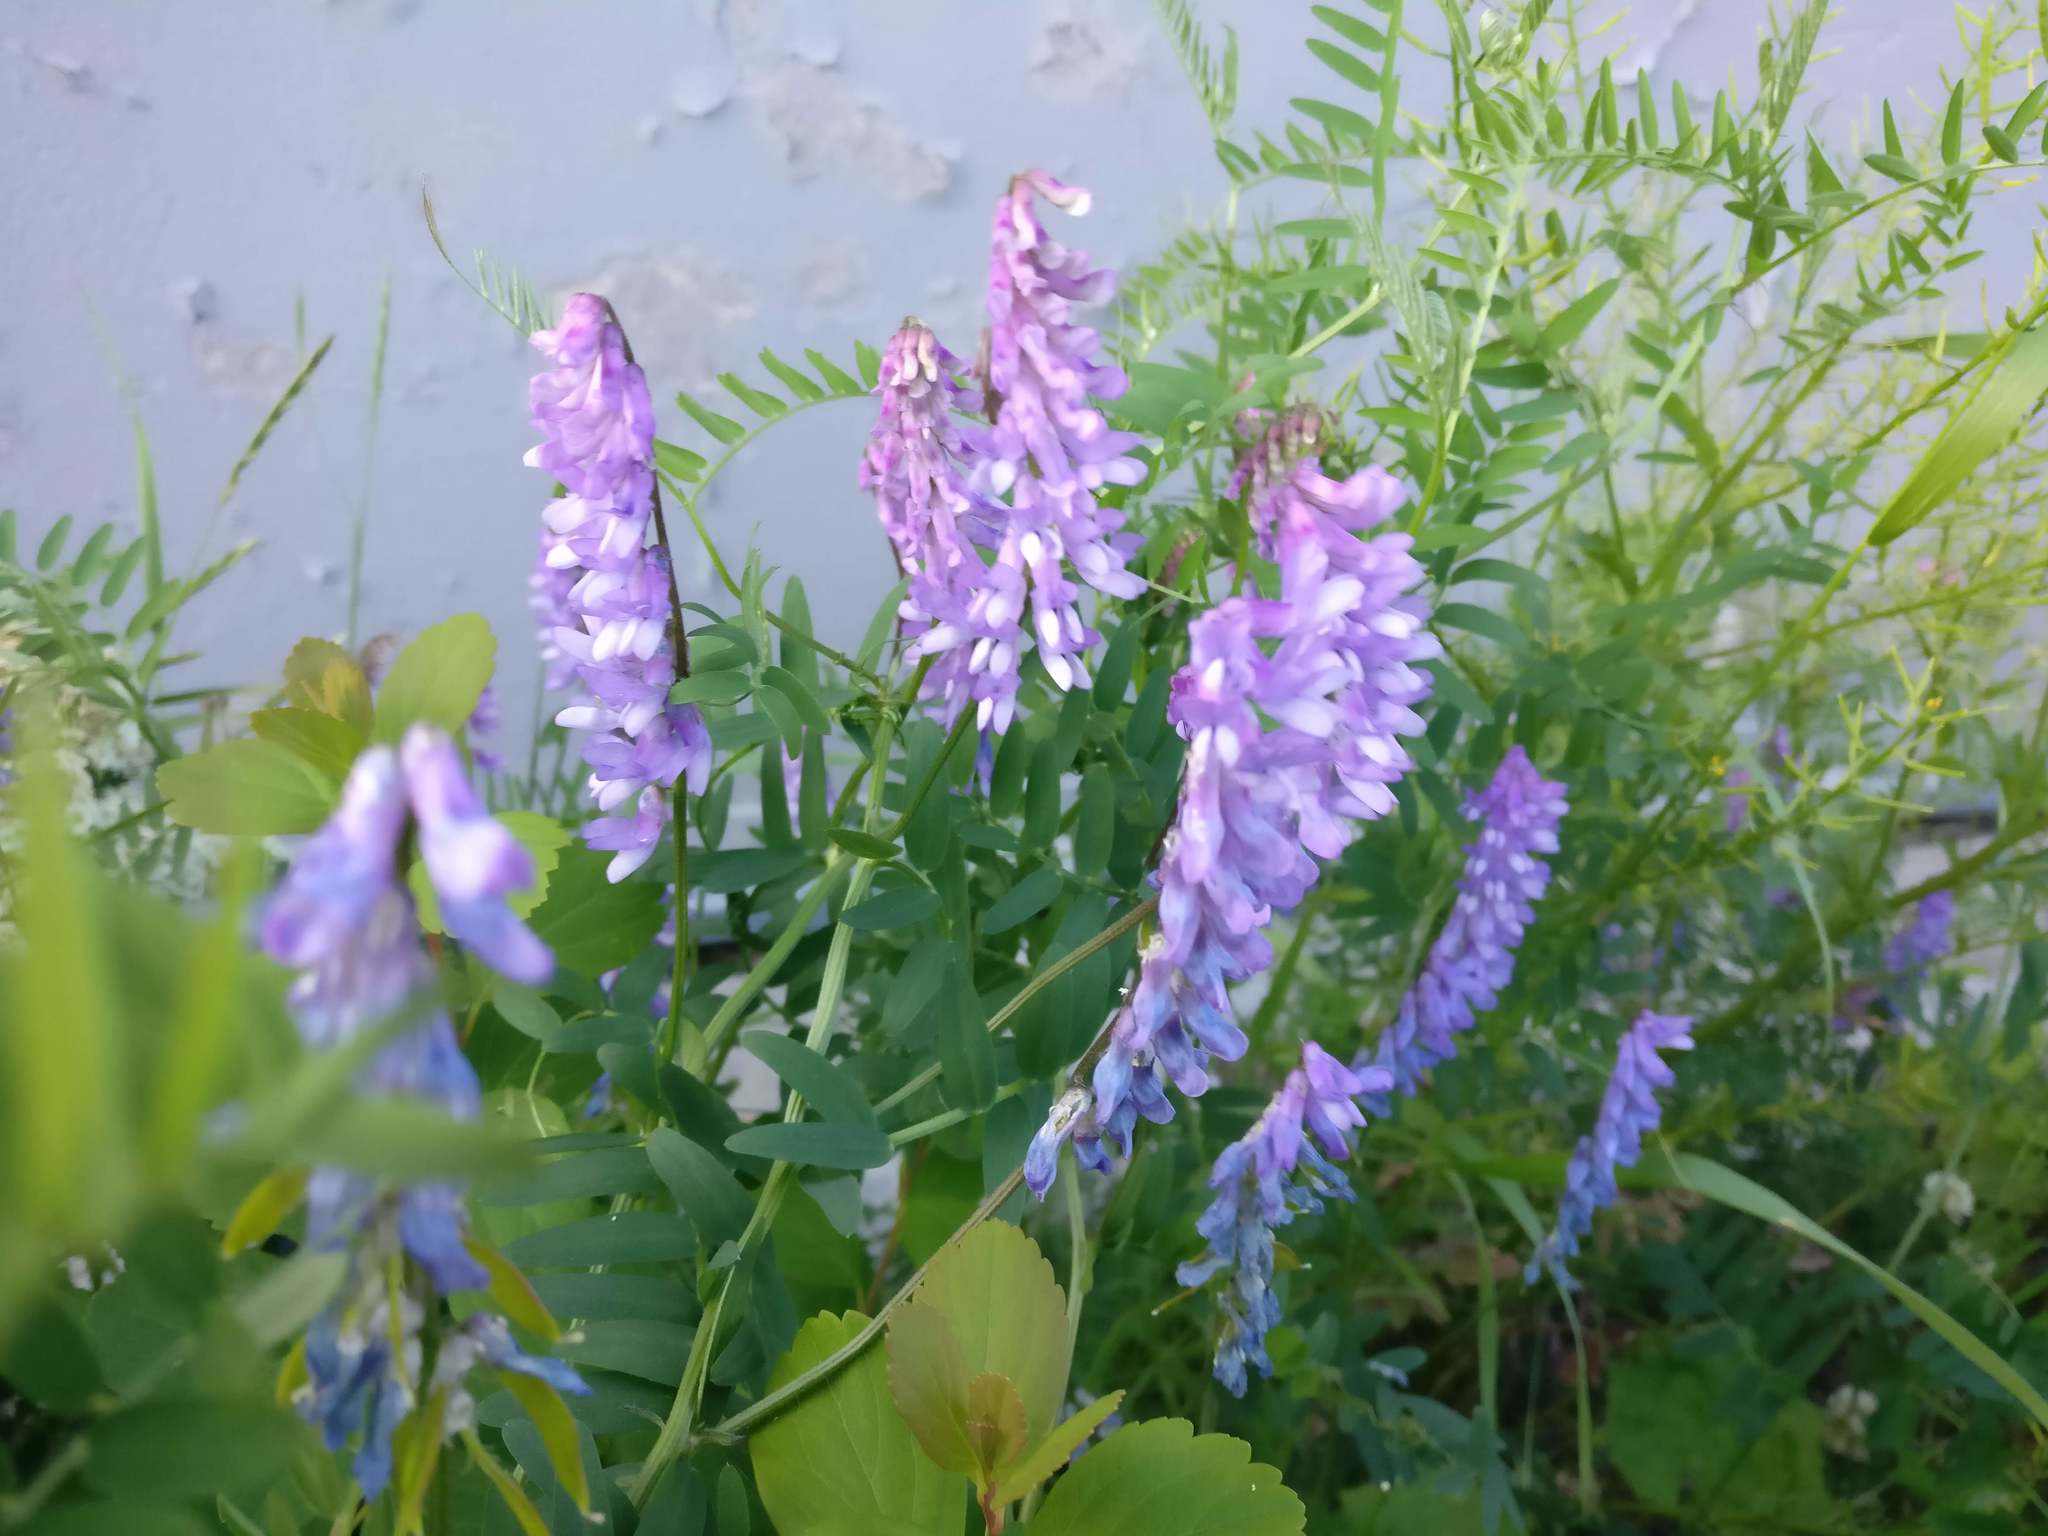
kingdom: Plantae
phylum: Tracheophyta
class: Magnoliopsida
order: Fabales
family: Fabaceae
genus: Vicia
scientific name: Vicia cracca
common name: Bird vetch
